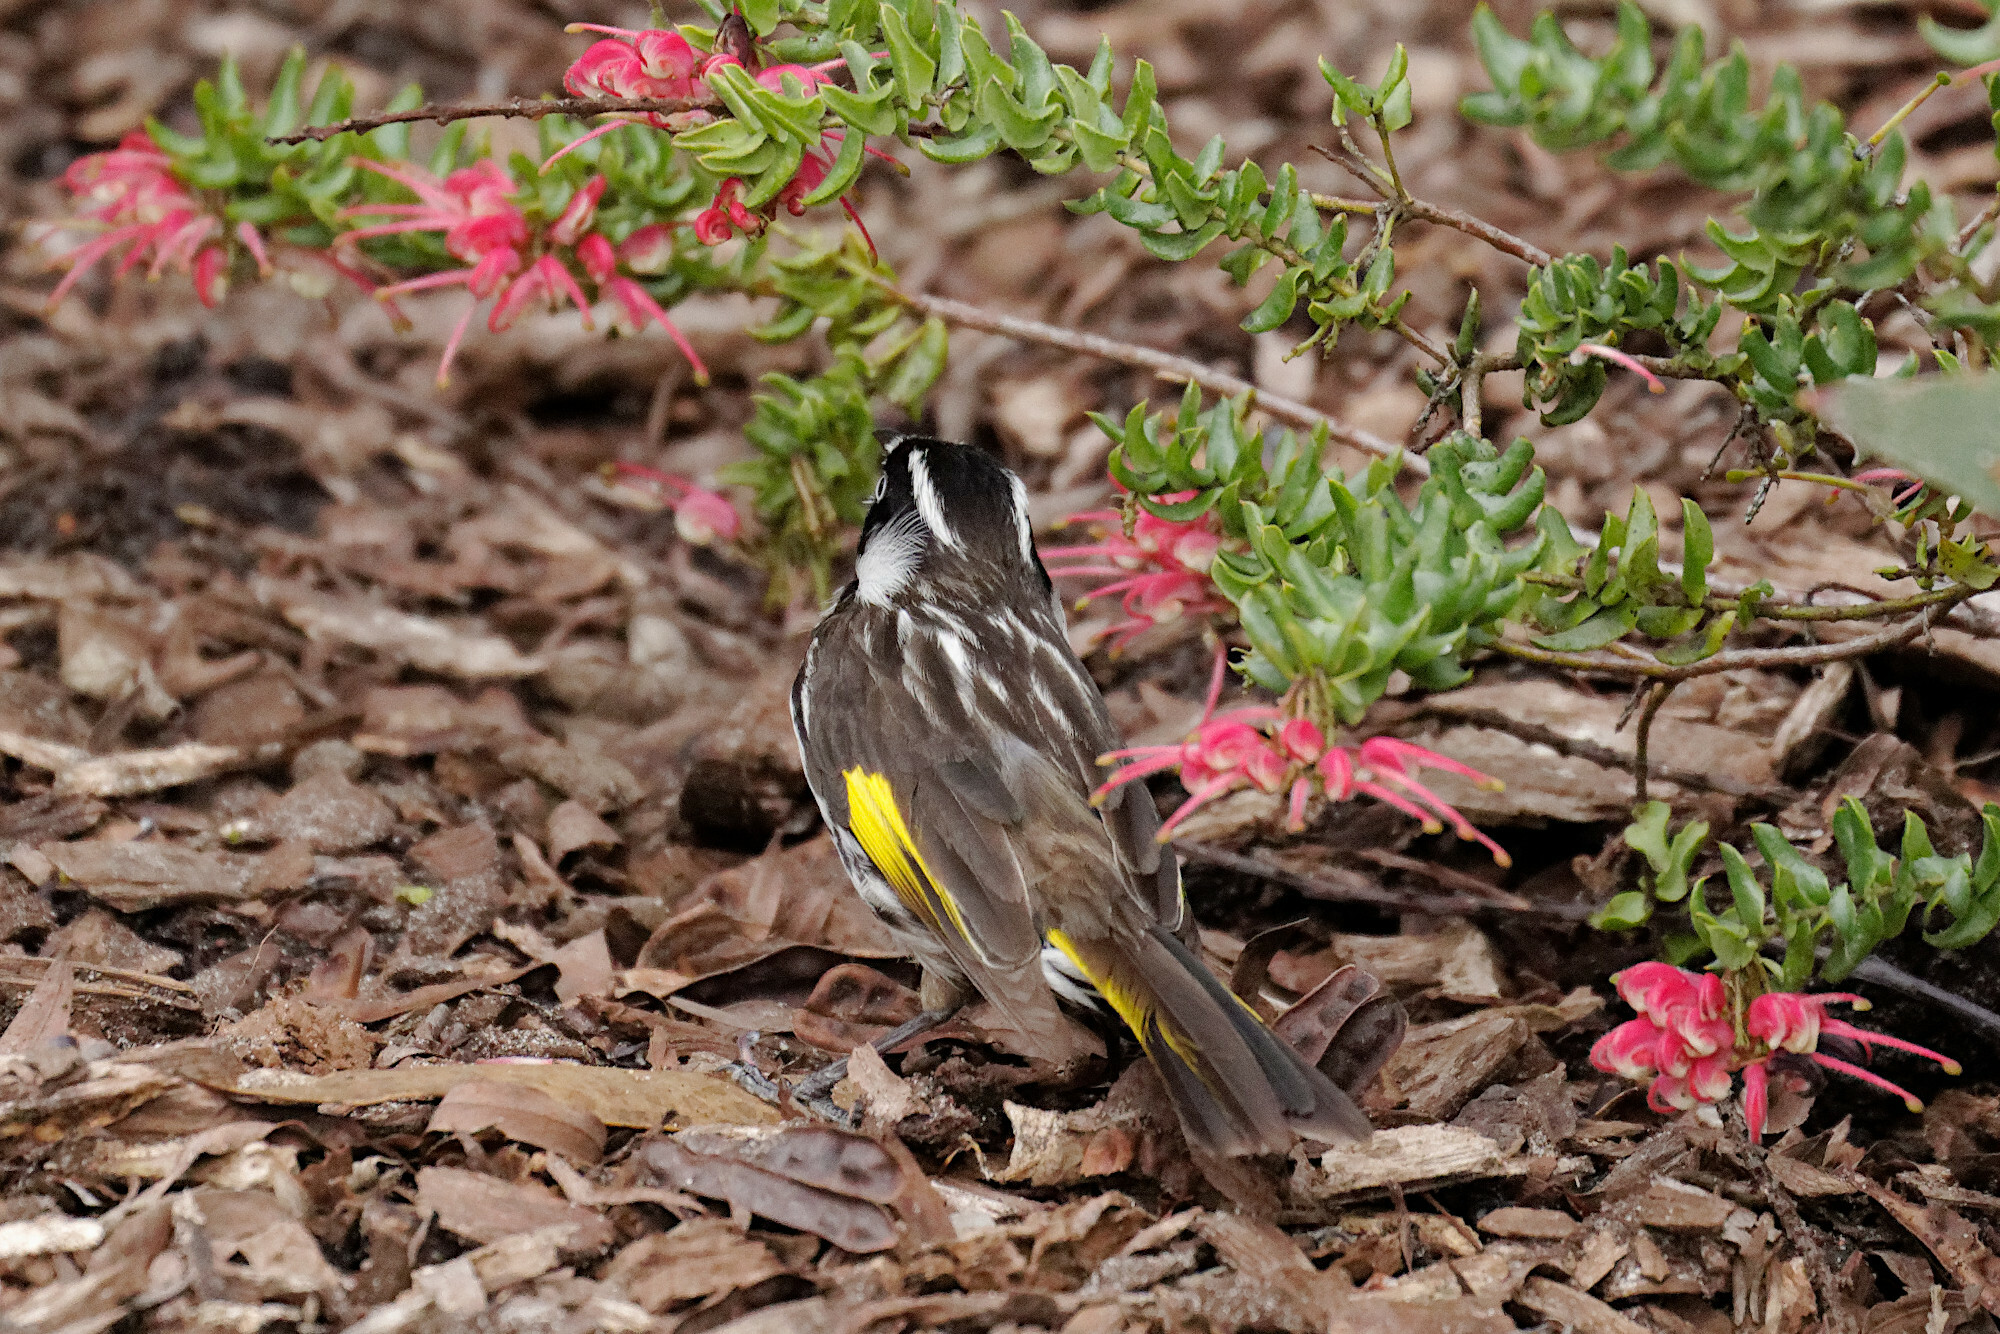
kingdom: Animalia
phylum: Chordata
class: Aves
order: Passeriformes
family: Meliphagidae
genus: Phylidonyris
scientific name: Phylidonyris novaehollandiae
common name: New holland honeyeater
